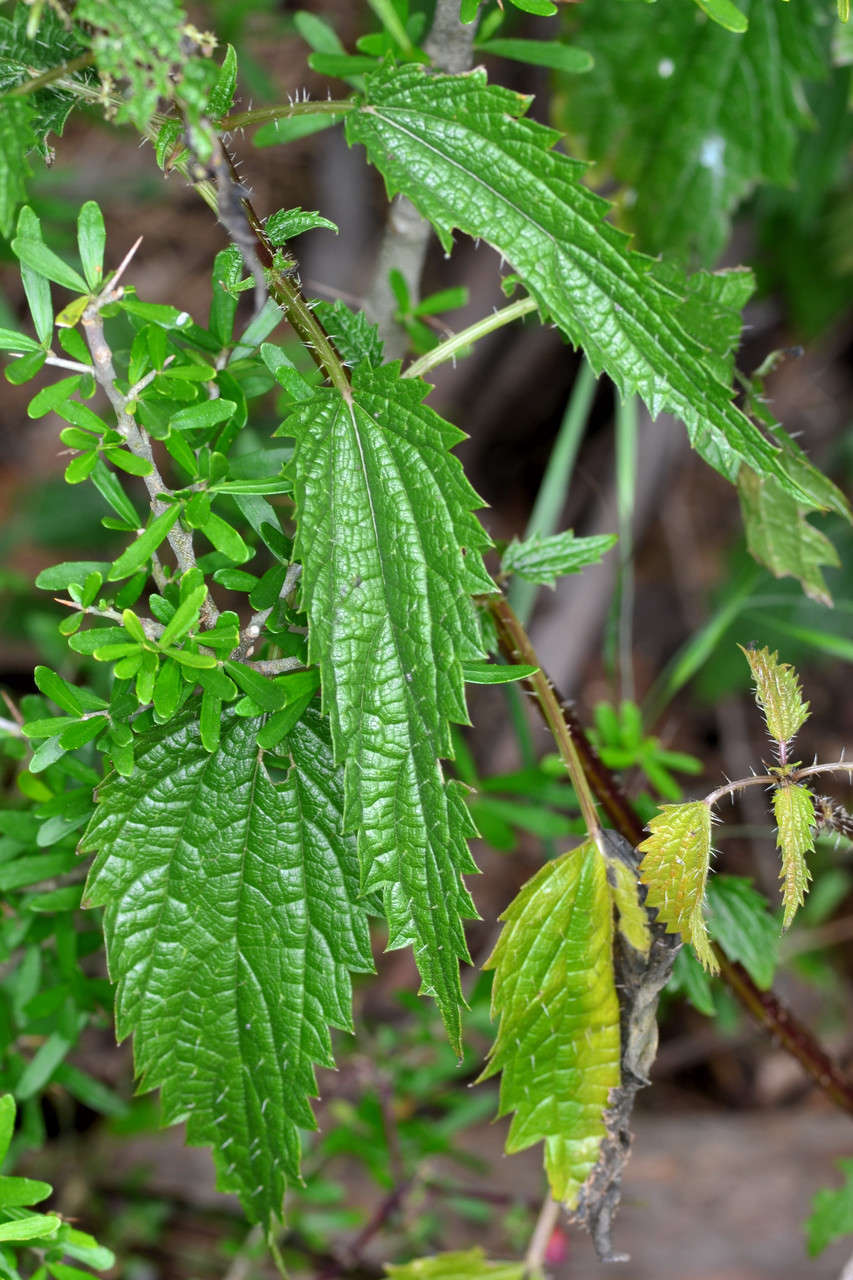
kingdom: Plantae
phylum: Tracheophyta
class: Magnoliopsida
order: Rosales
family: Urticaceae
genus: Urtica
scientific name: Urtica incisa
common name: Scrub nettle
